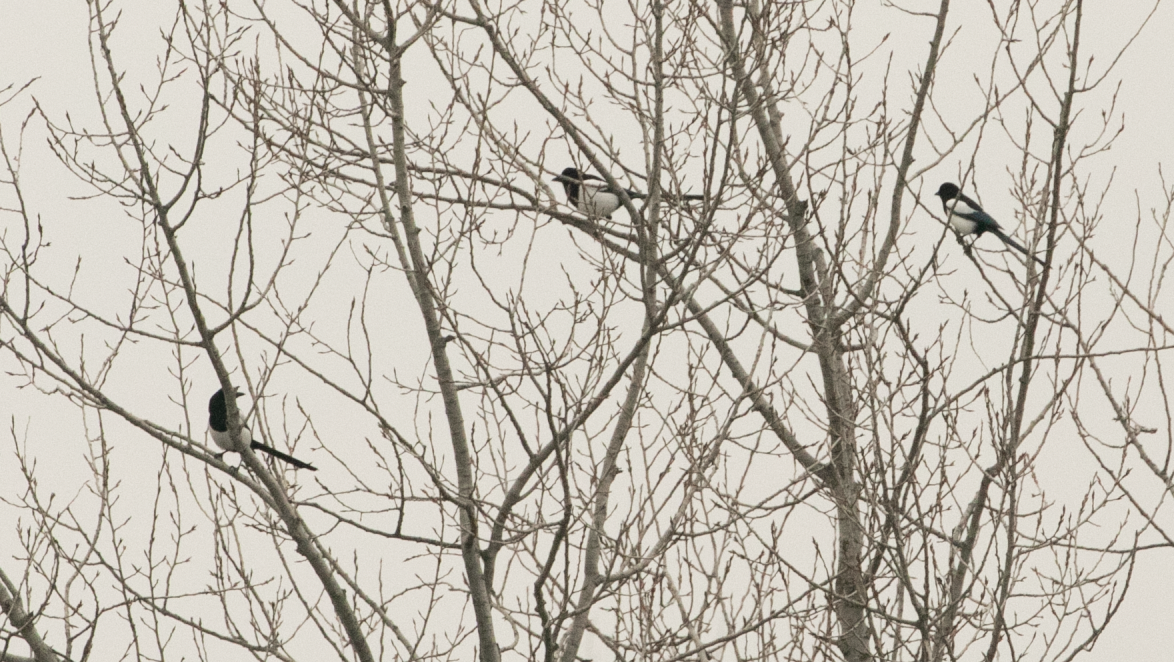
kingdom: Animalia
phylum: Chordata
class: Aves
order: Passeriformes
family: Corvidae
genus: Pica
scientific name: Pica pica
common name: Eurasian magpie
